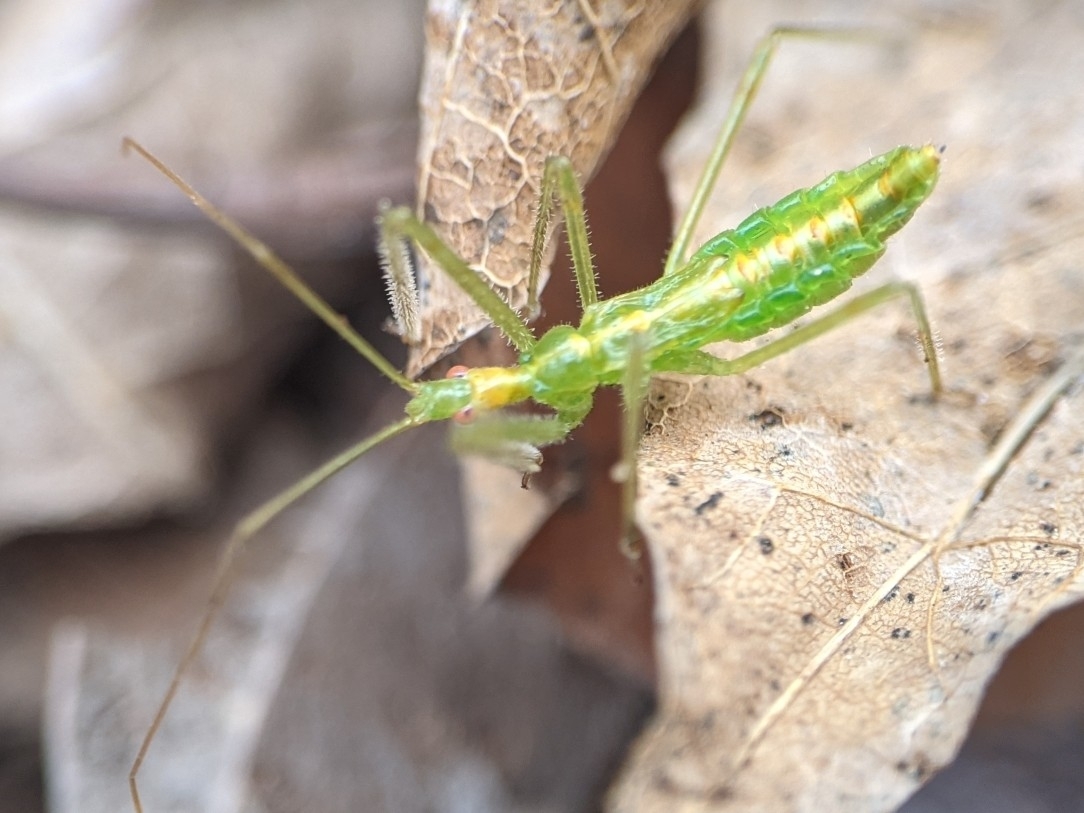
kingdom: Animalia
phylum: Arthropoda
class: Insecta
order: Hemiptera
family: Reduviidae
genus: Zelus
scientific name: Zelus luridus
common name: Pale green assassin bug
